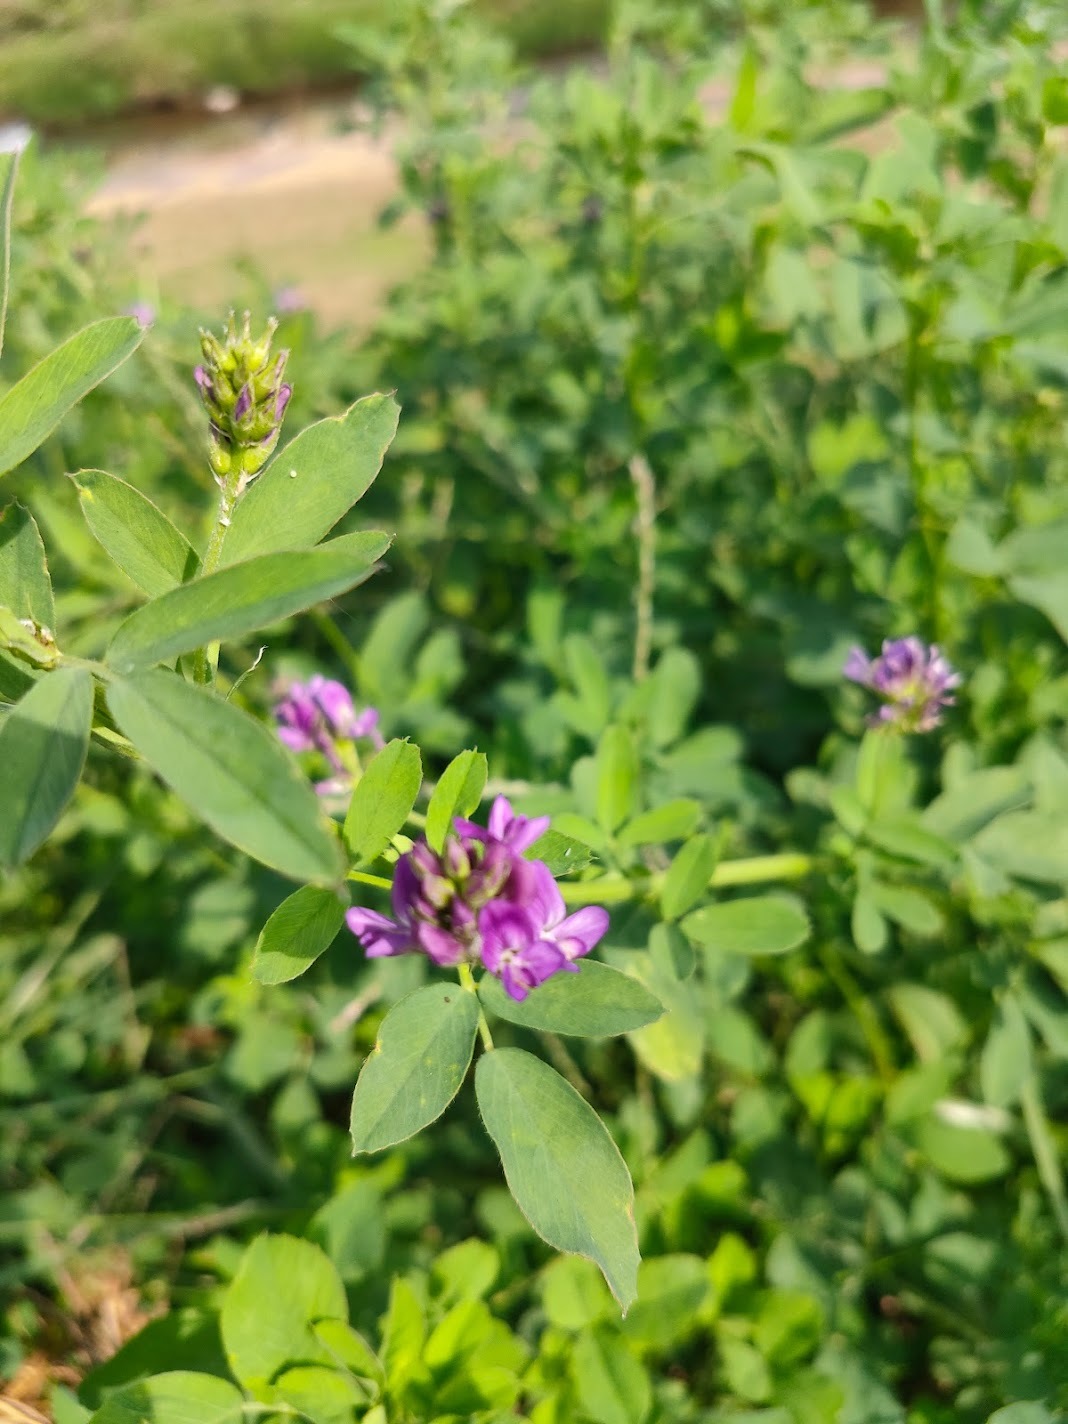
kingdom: Plantae
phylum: Tracheophyta
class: Magnoliopsida
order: Fabales
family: Fabaceae
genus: Medicago
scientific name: Medicago sativa
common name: Alfalfa
